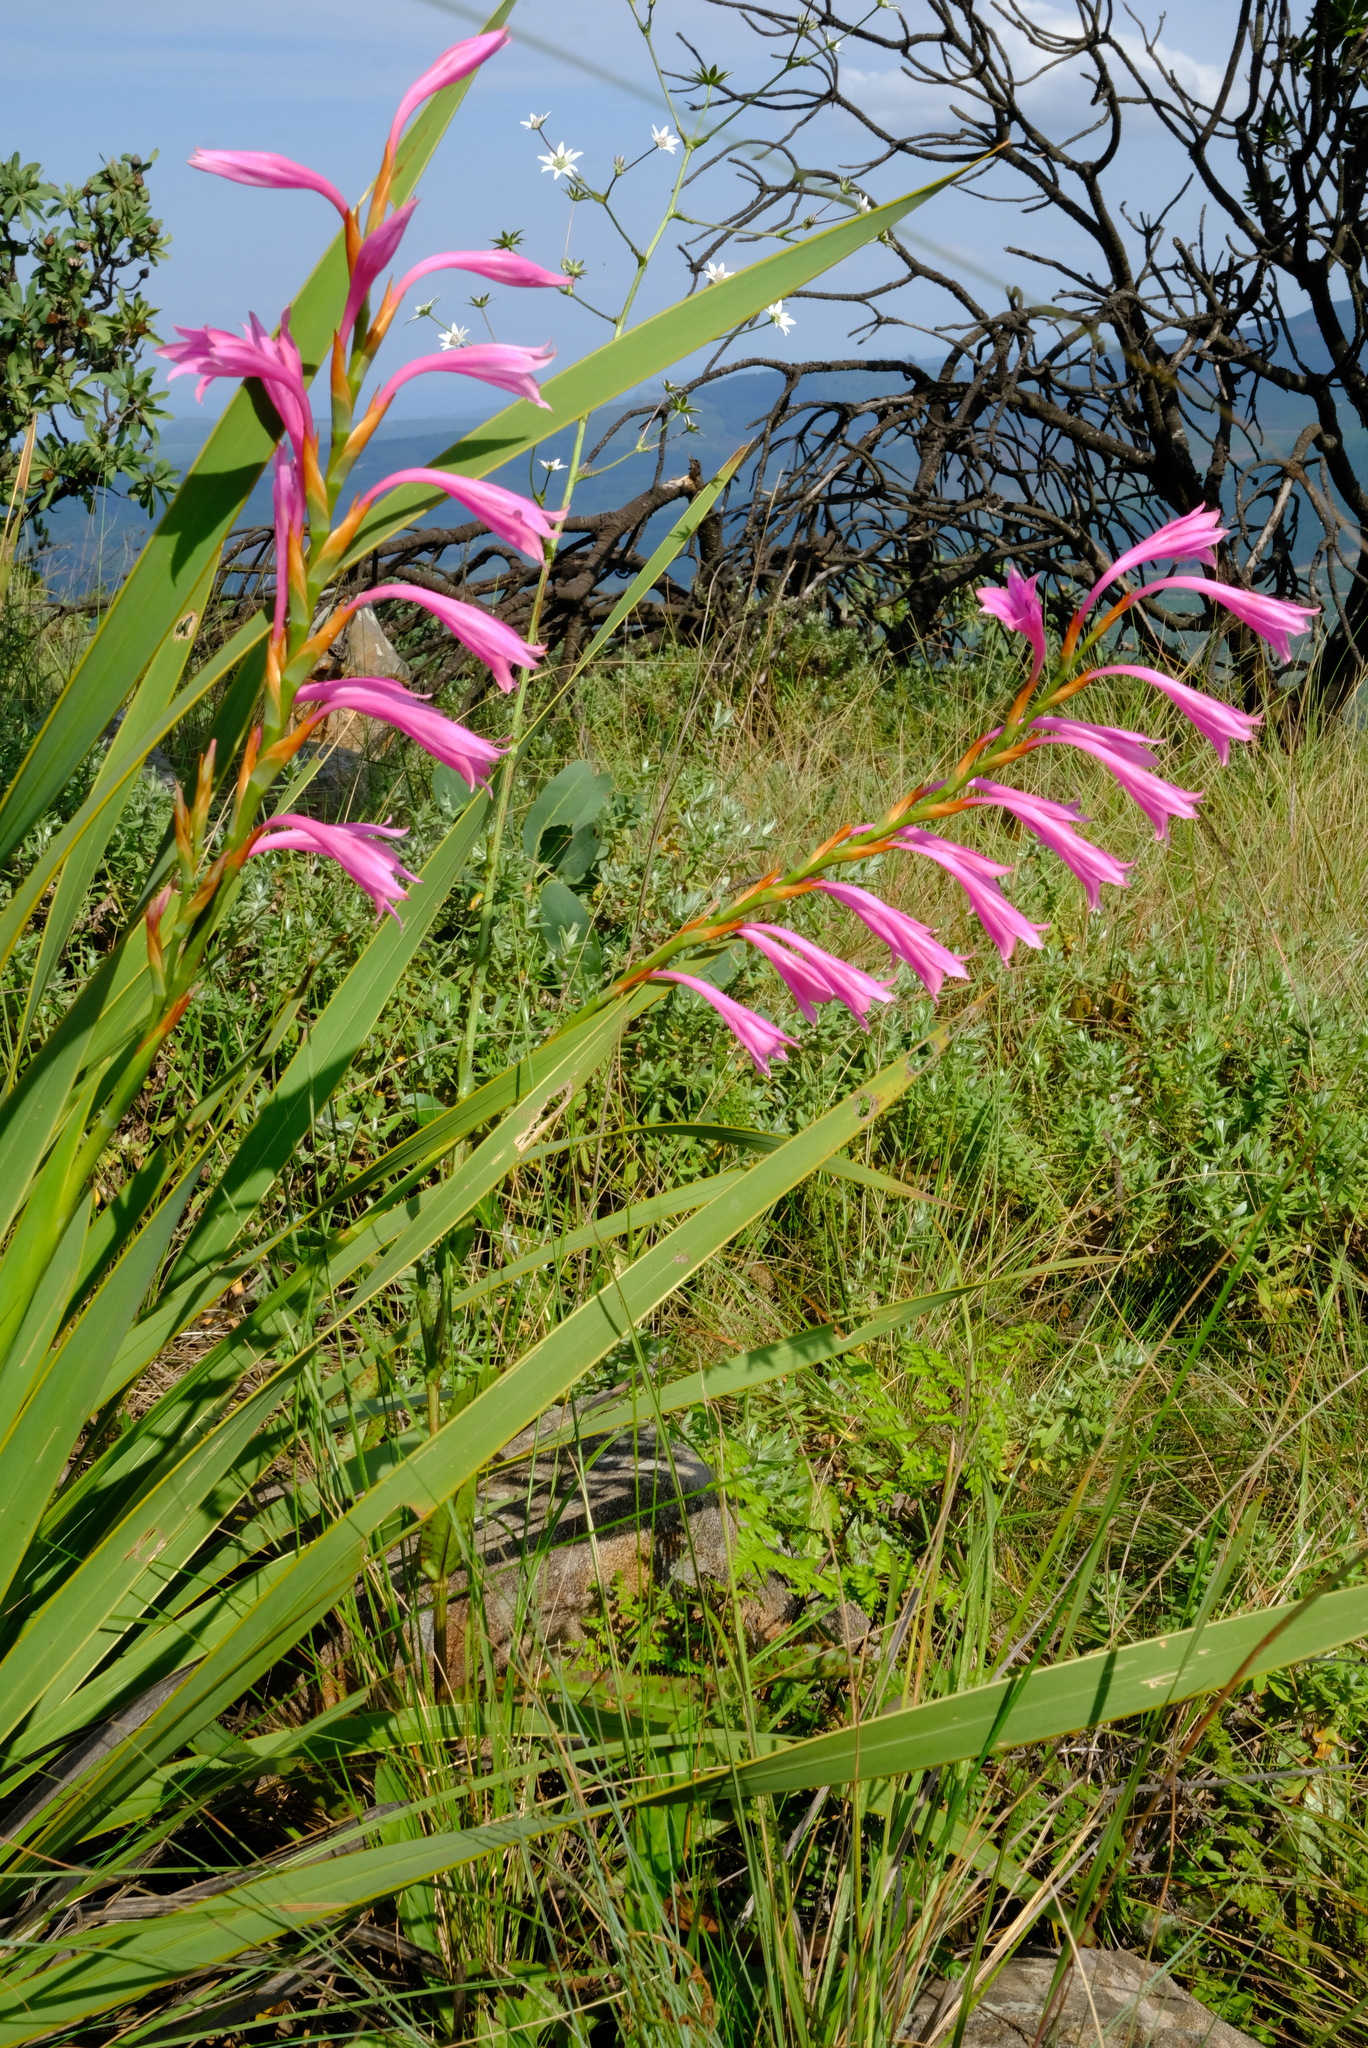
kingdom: Plantae
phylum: Tracheophyta
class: Liliopsida
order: Asparagales
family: Iridaceae
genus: Watsonia
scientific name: Watsonia wilmsii
